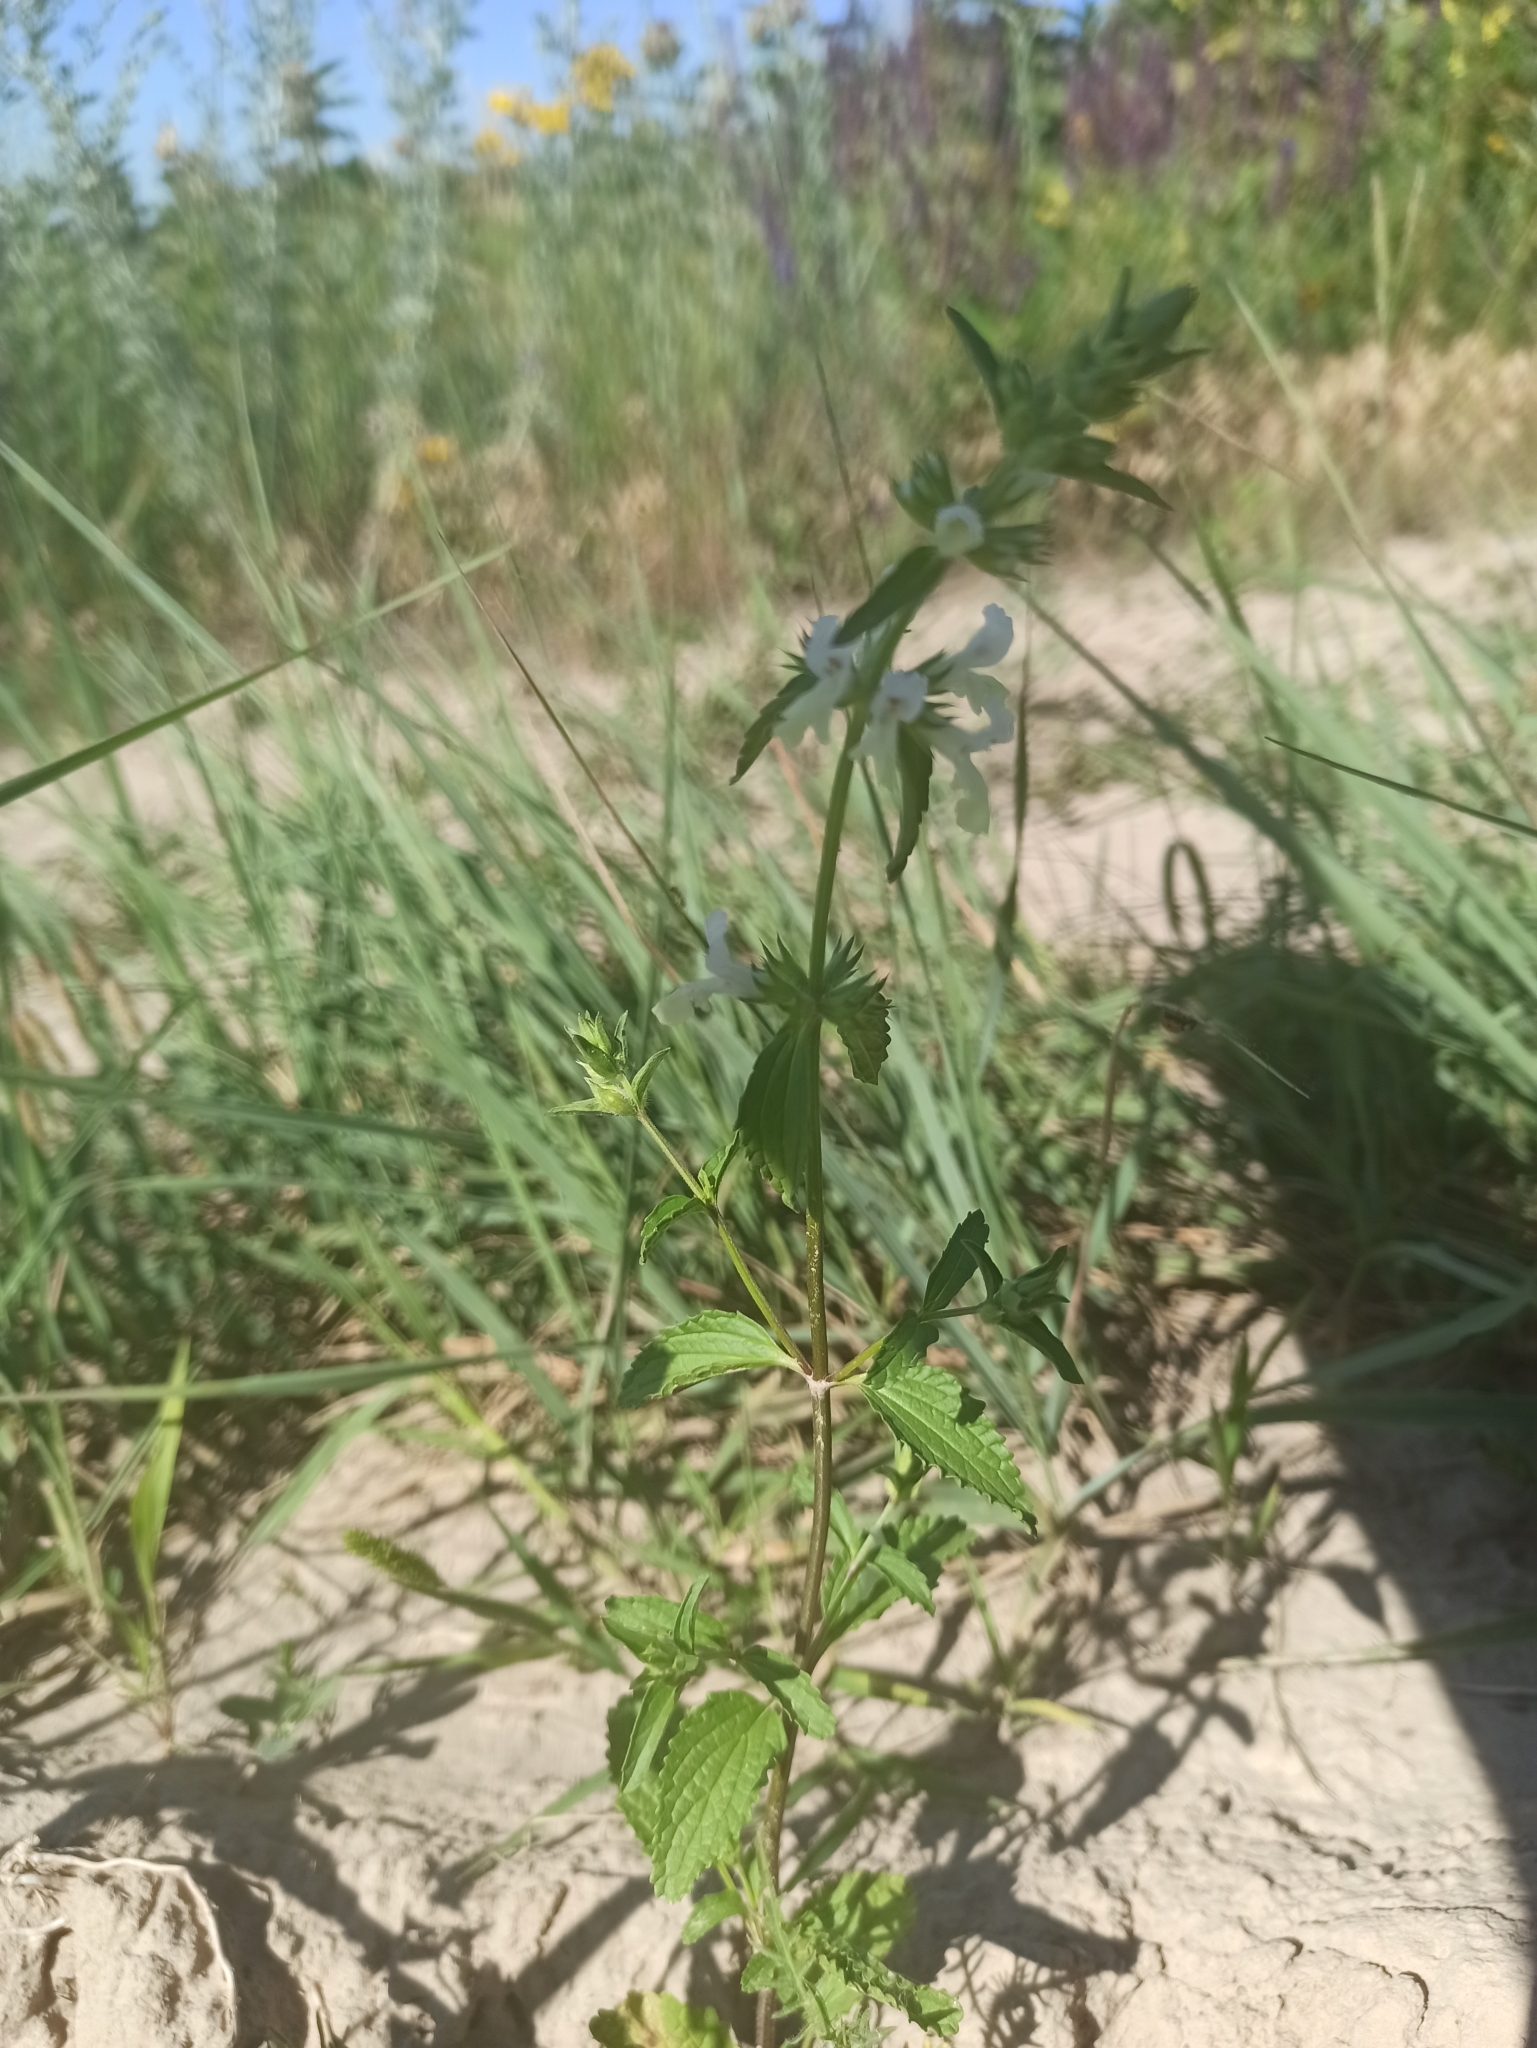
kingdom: Plantae
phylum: Tracheophyta
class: Magnoliopsida
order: Lamiales
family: Lamiaceae
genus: Stachys
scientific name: Stachys annua
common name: Annual yellow-woundwort
